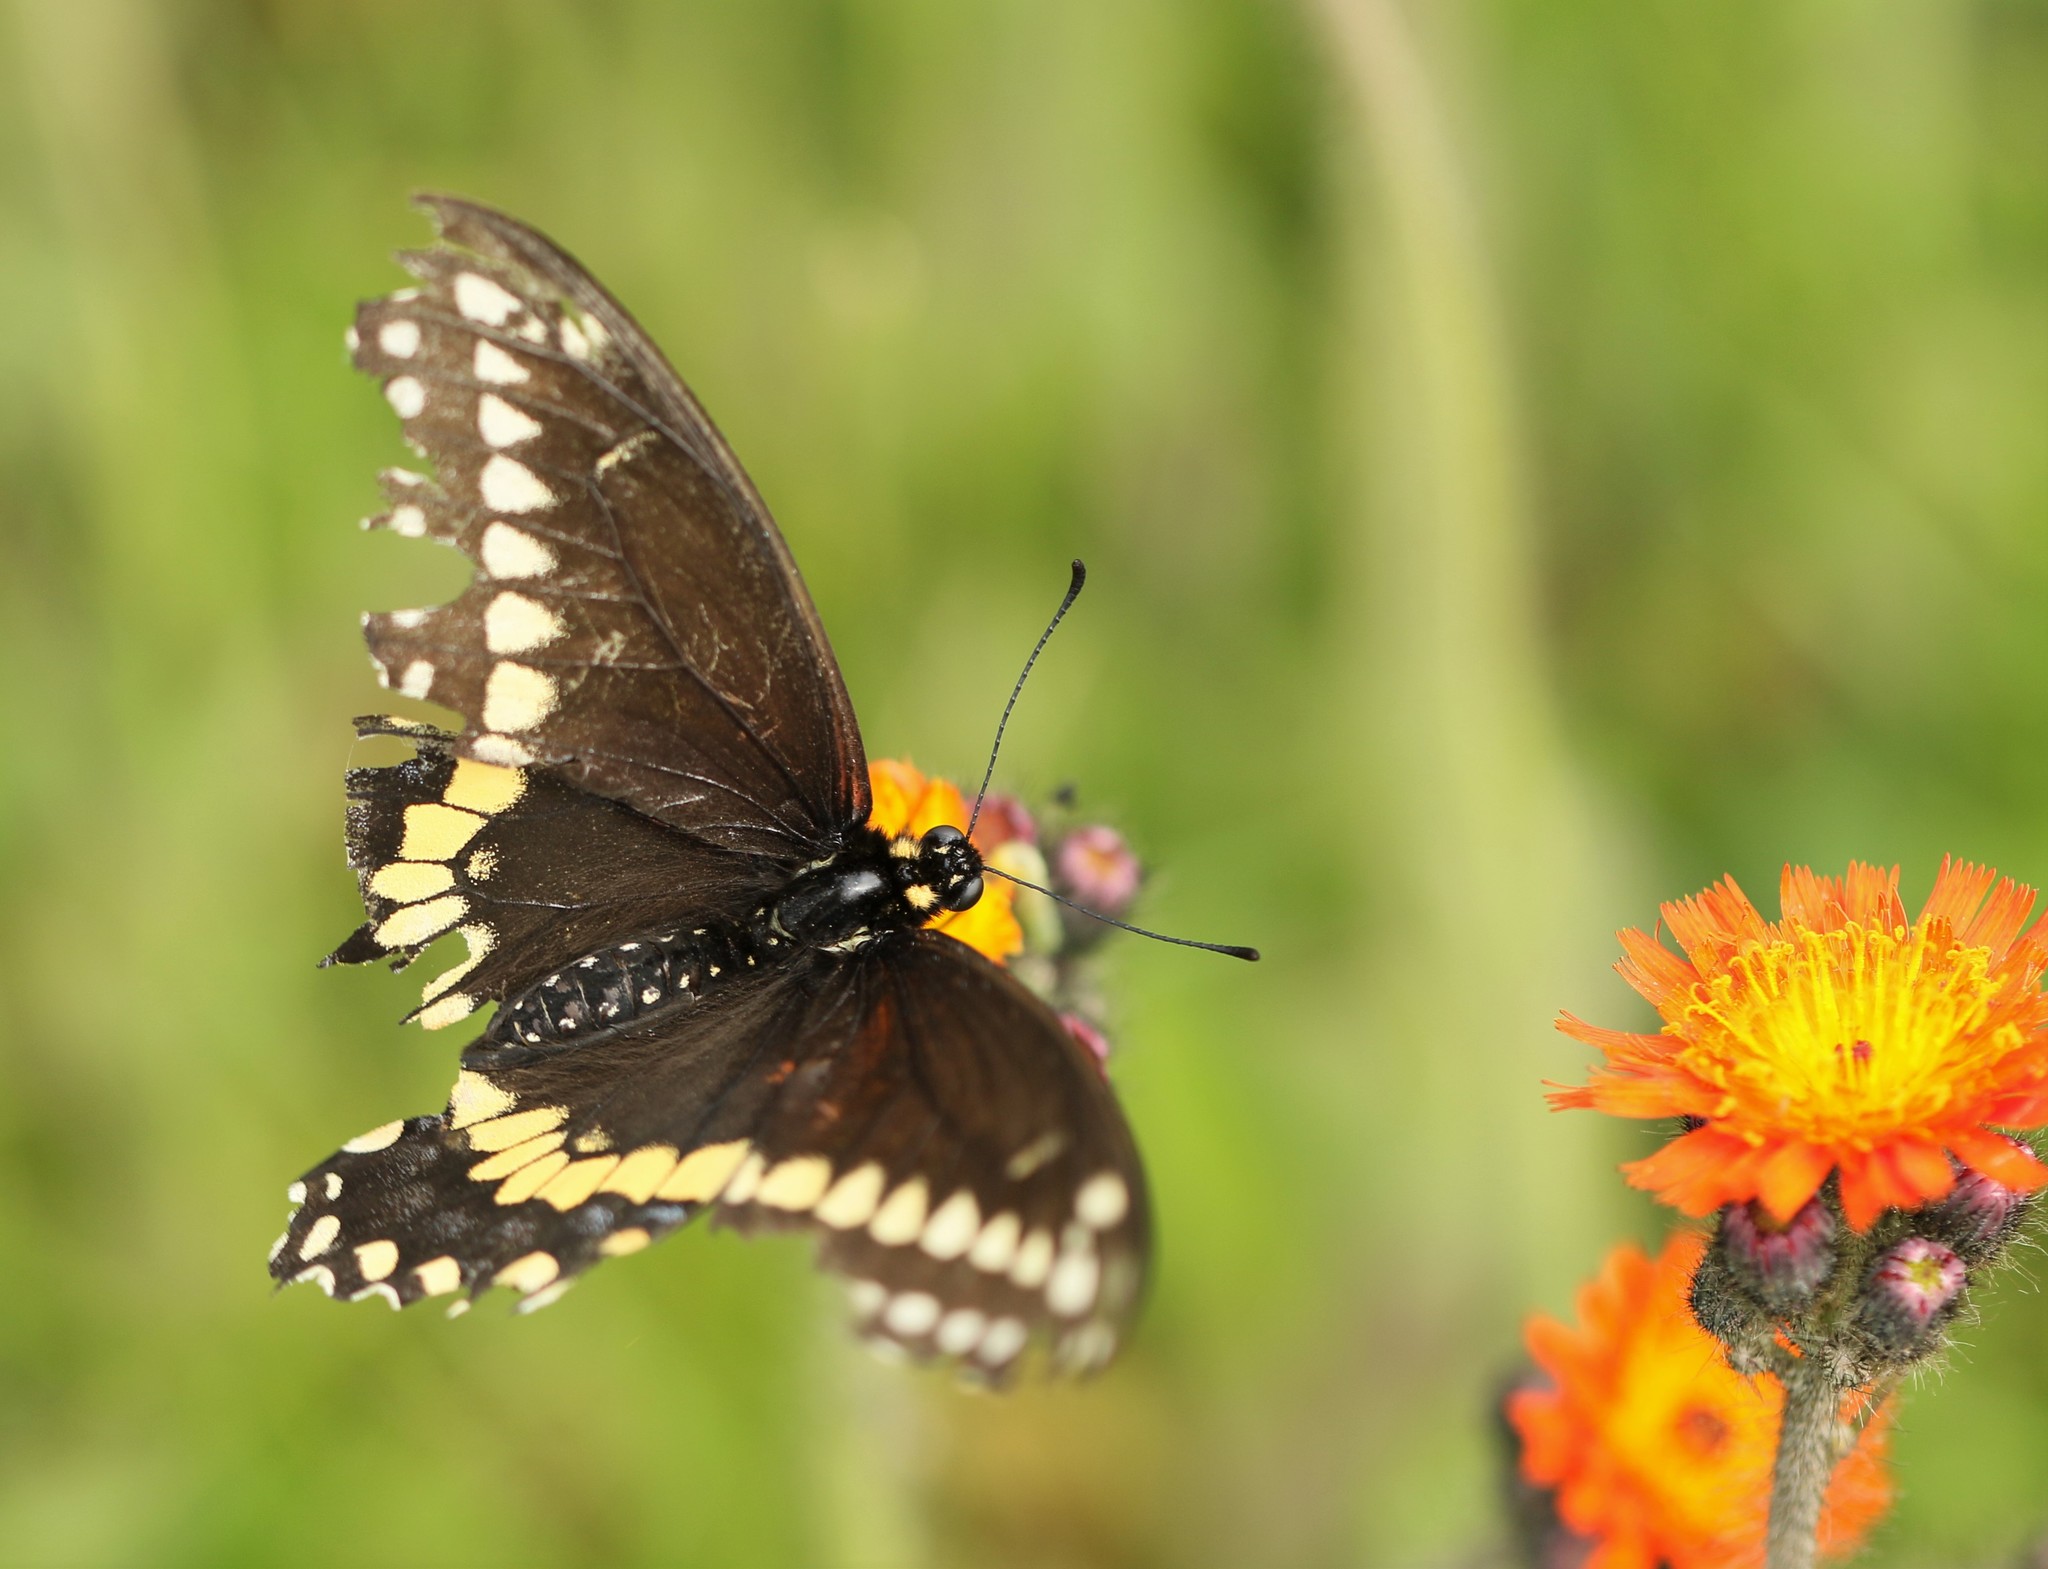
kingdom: Animalia
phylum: Arthropoda
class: Insecta
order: Lepidoptera
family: Papilionidae
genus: Papilio
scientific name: Papilio polyxenes
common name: Black swallowtail
